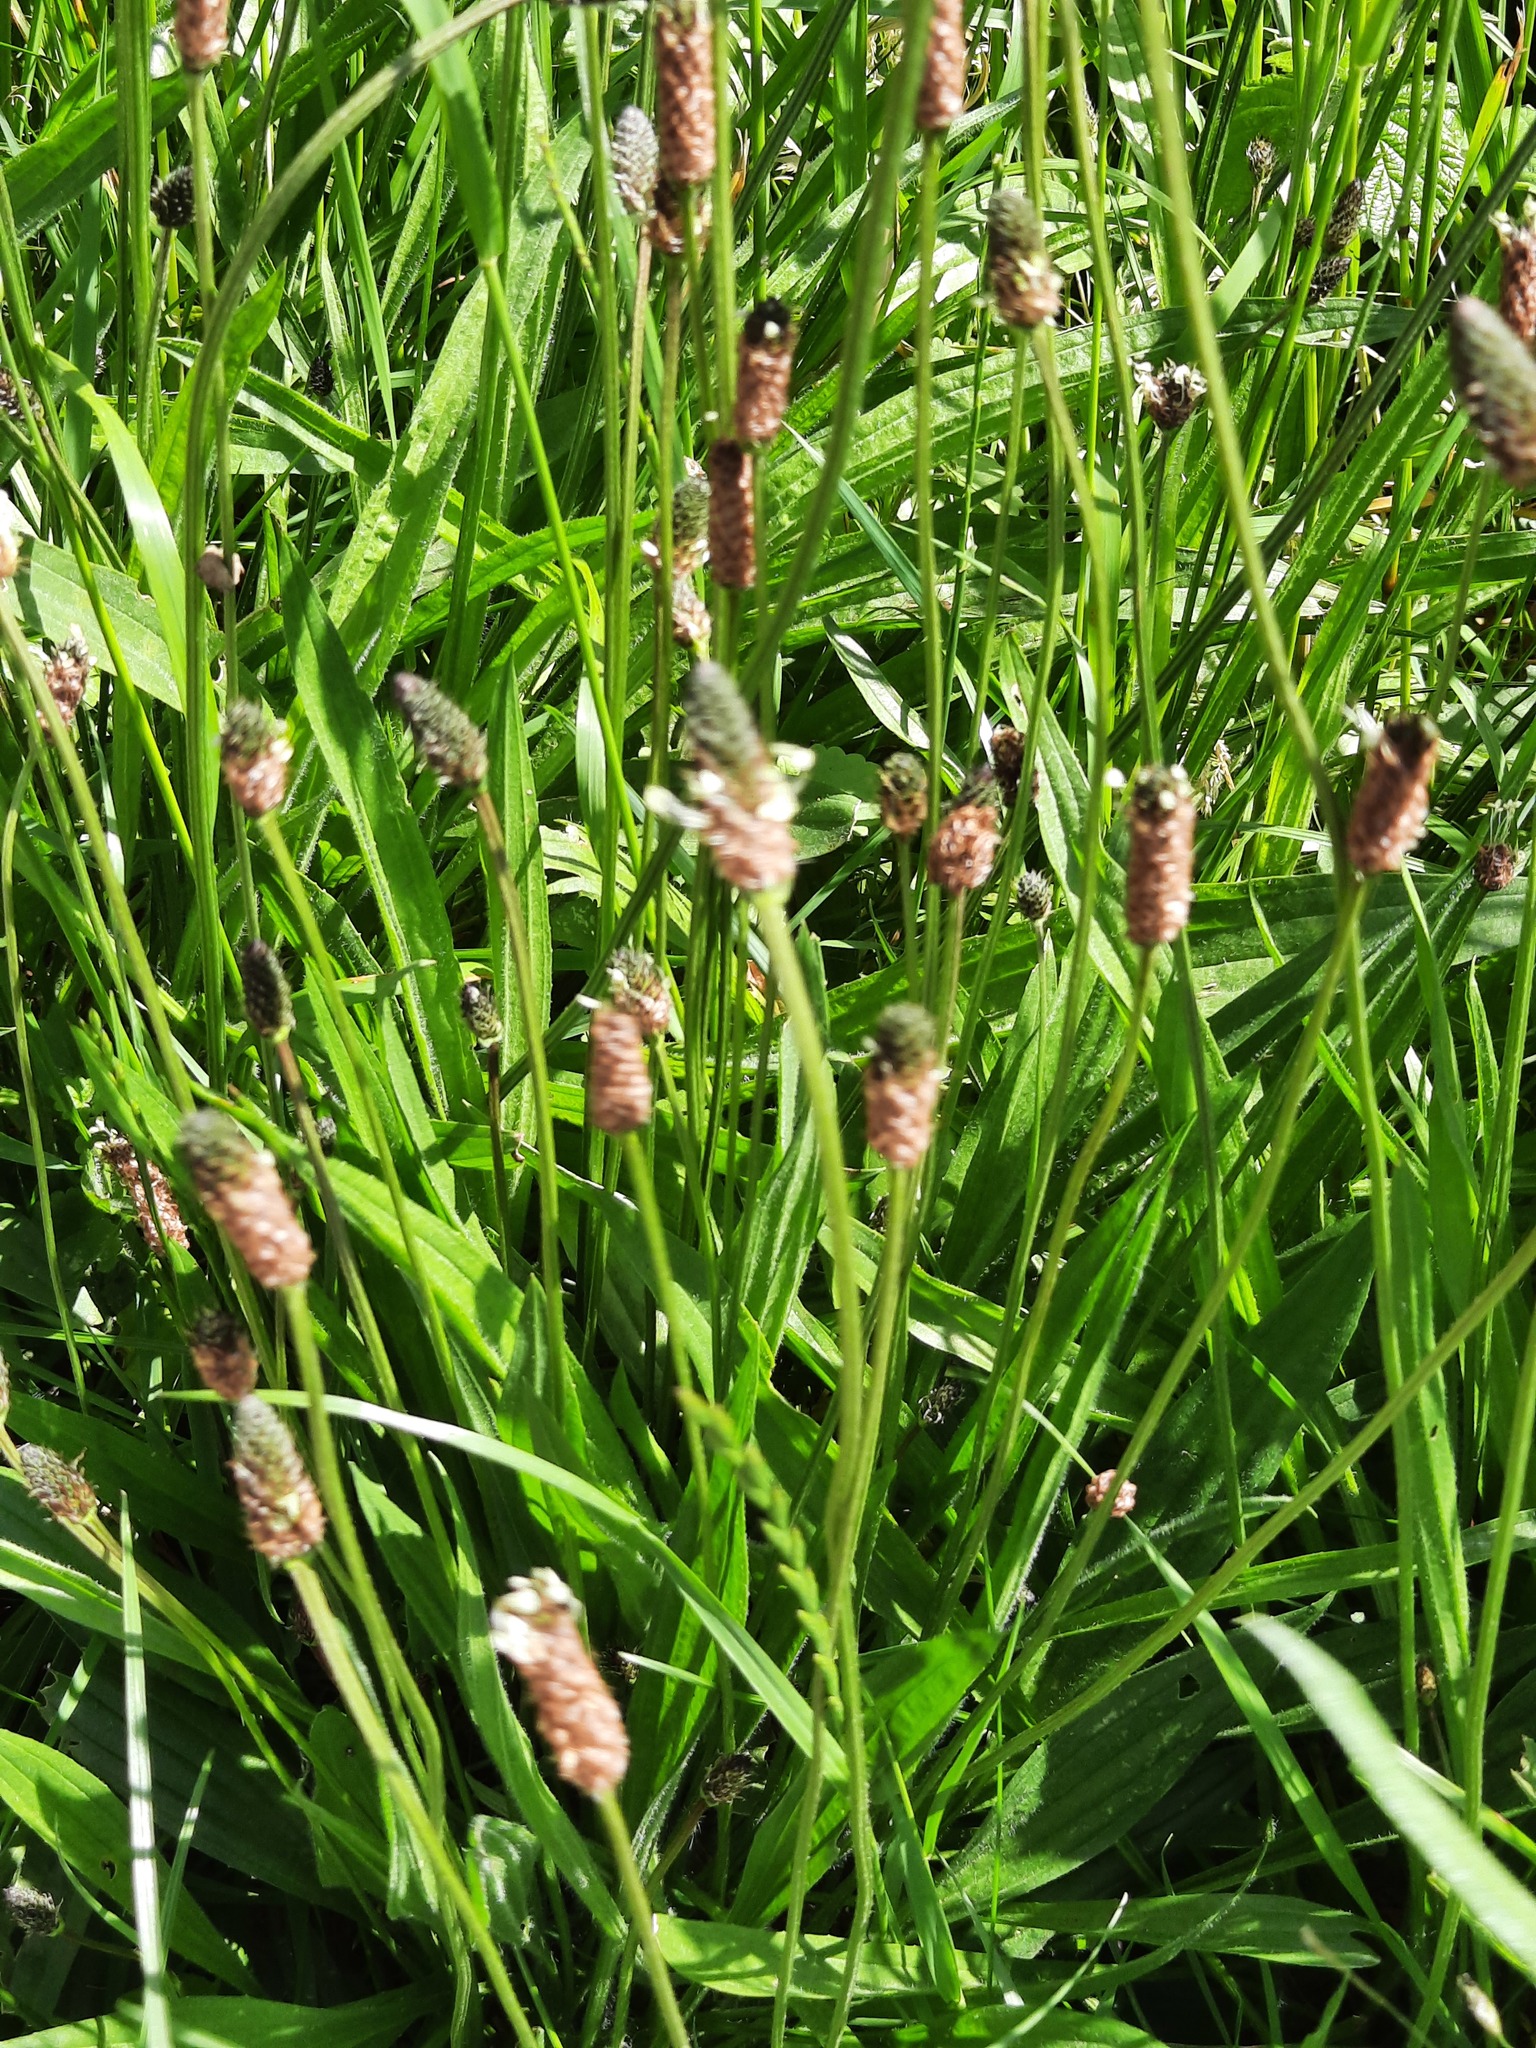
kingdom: Plantae
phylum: Tracheophyta
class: Magnoliopsida
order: Lamiales
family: Plantaginaceae
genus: Plantago
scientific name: Plantago lanceolata
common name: Ribwort plantain
